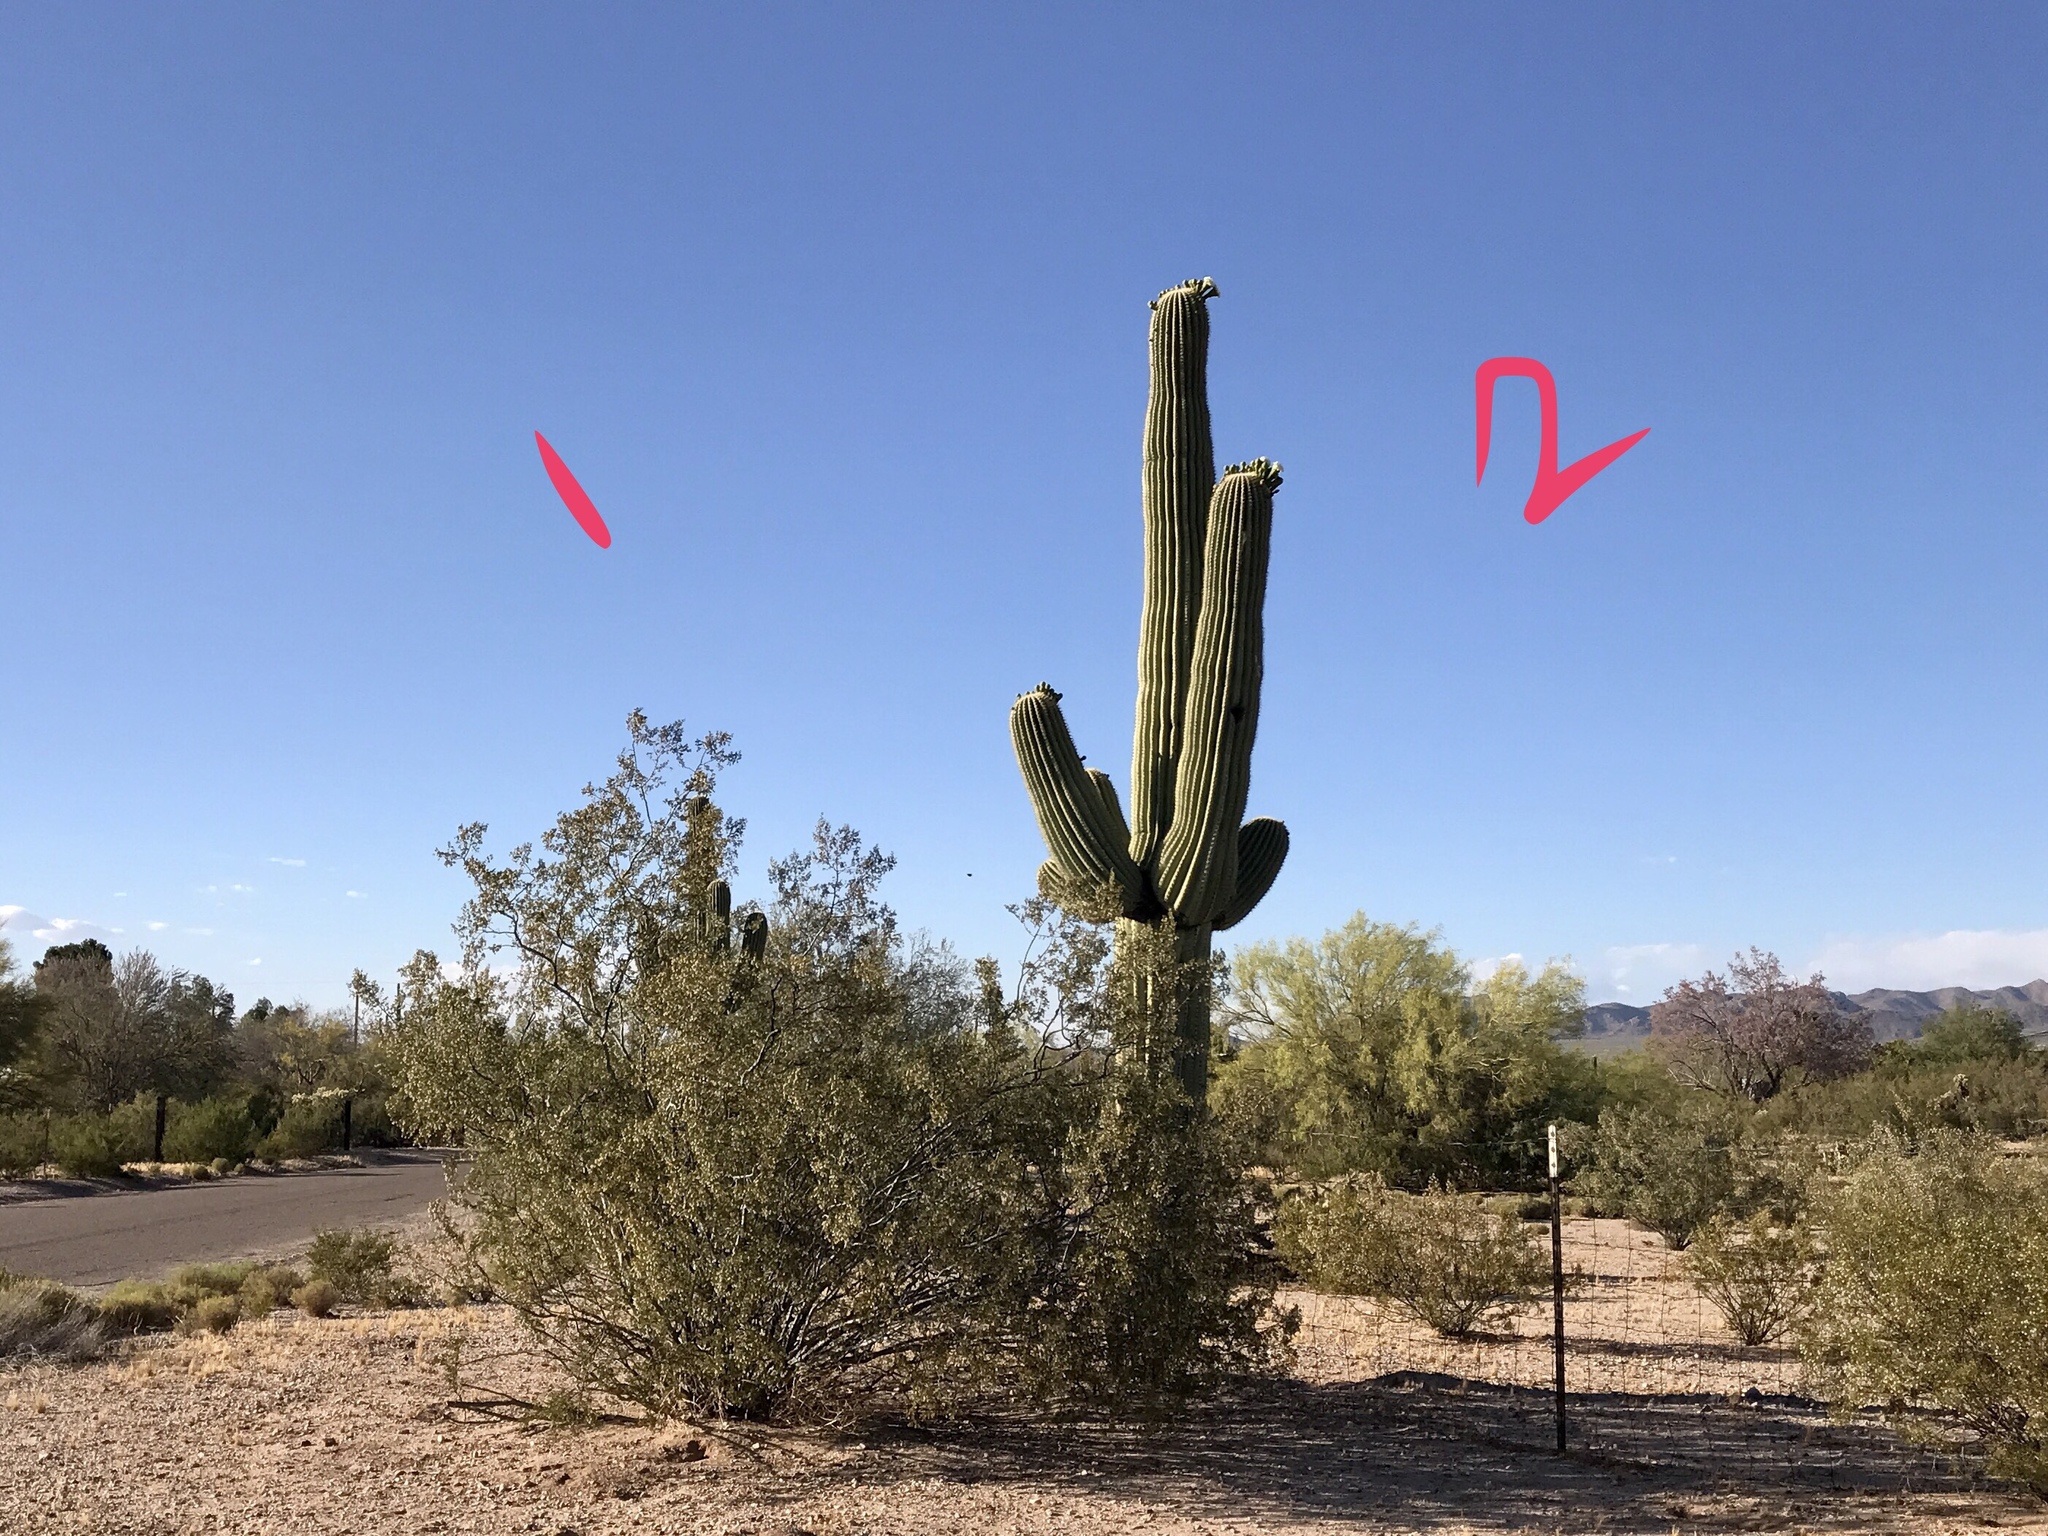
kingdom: Plantae
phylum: Tracheophyta
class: Magnoliopsida
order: Zygophyllales
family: Zygophyllaceae
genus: Larrea
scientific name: Larrea tridentata
